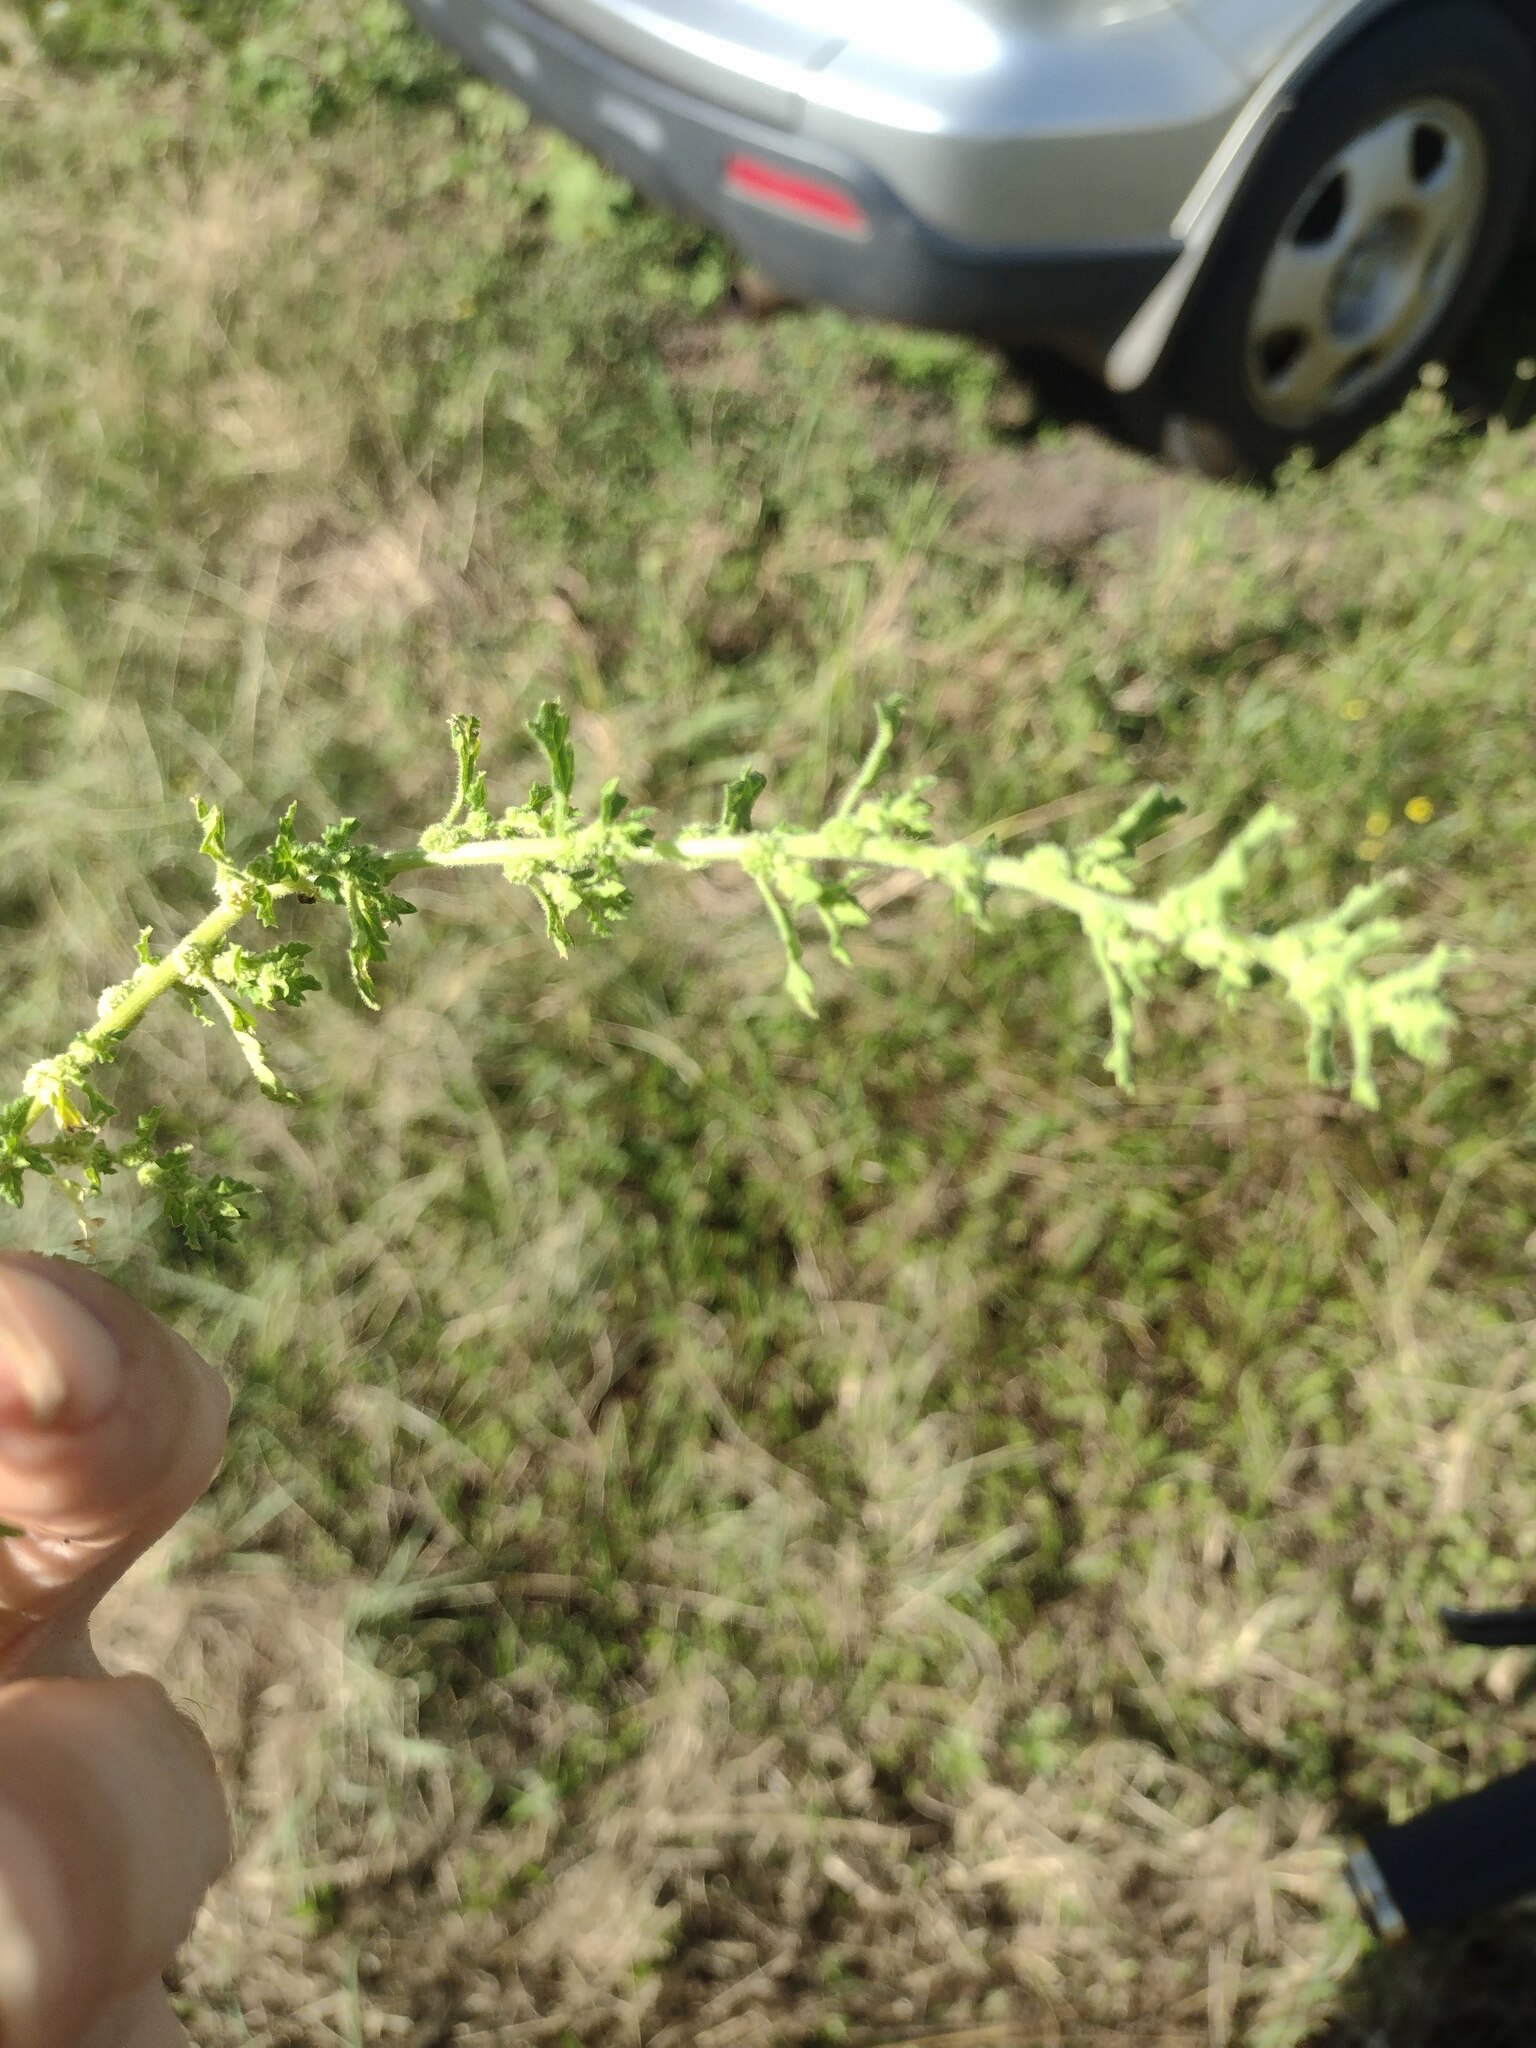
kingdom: Plantae
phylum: Tracheophyta
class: Magnoliopsida
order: Caryophyllales
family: Amaranthaceae
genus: Dysphania
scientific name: Dysphania carinata
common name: Keeled wormseed
